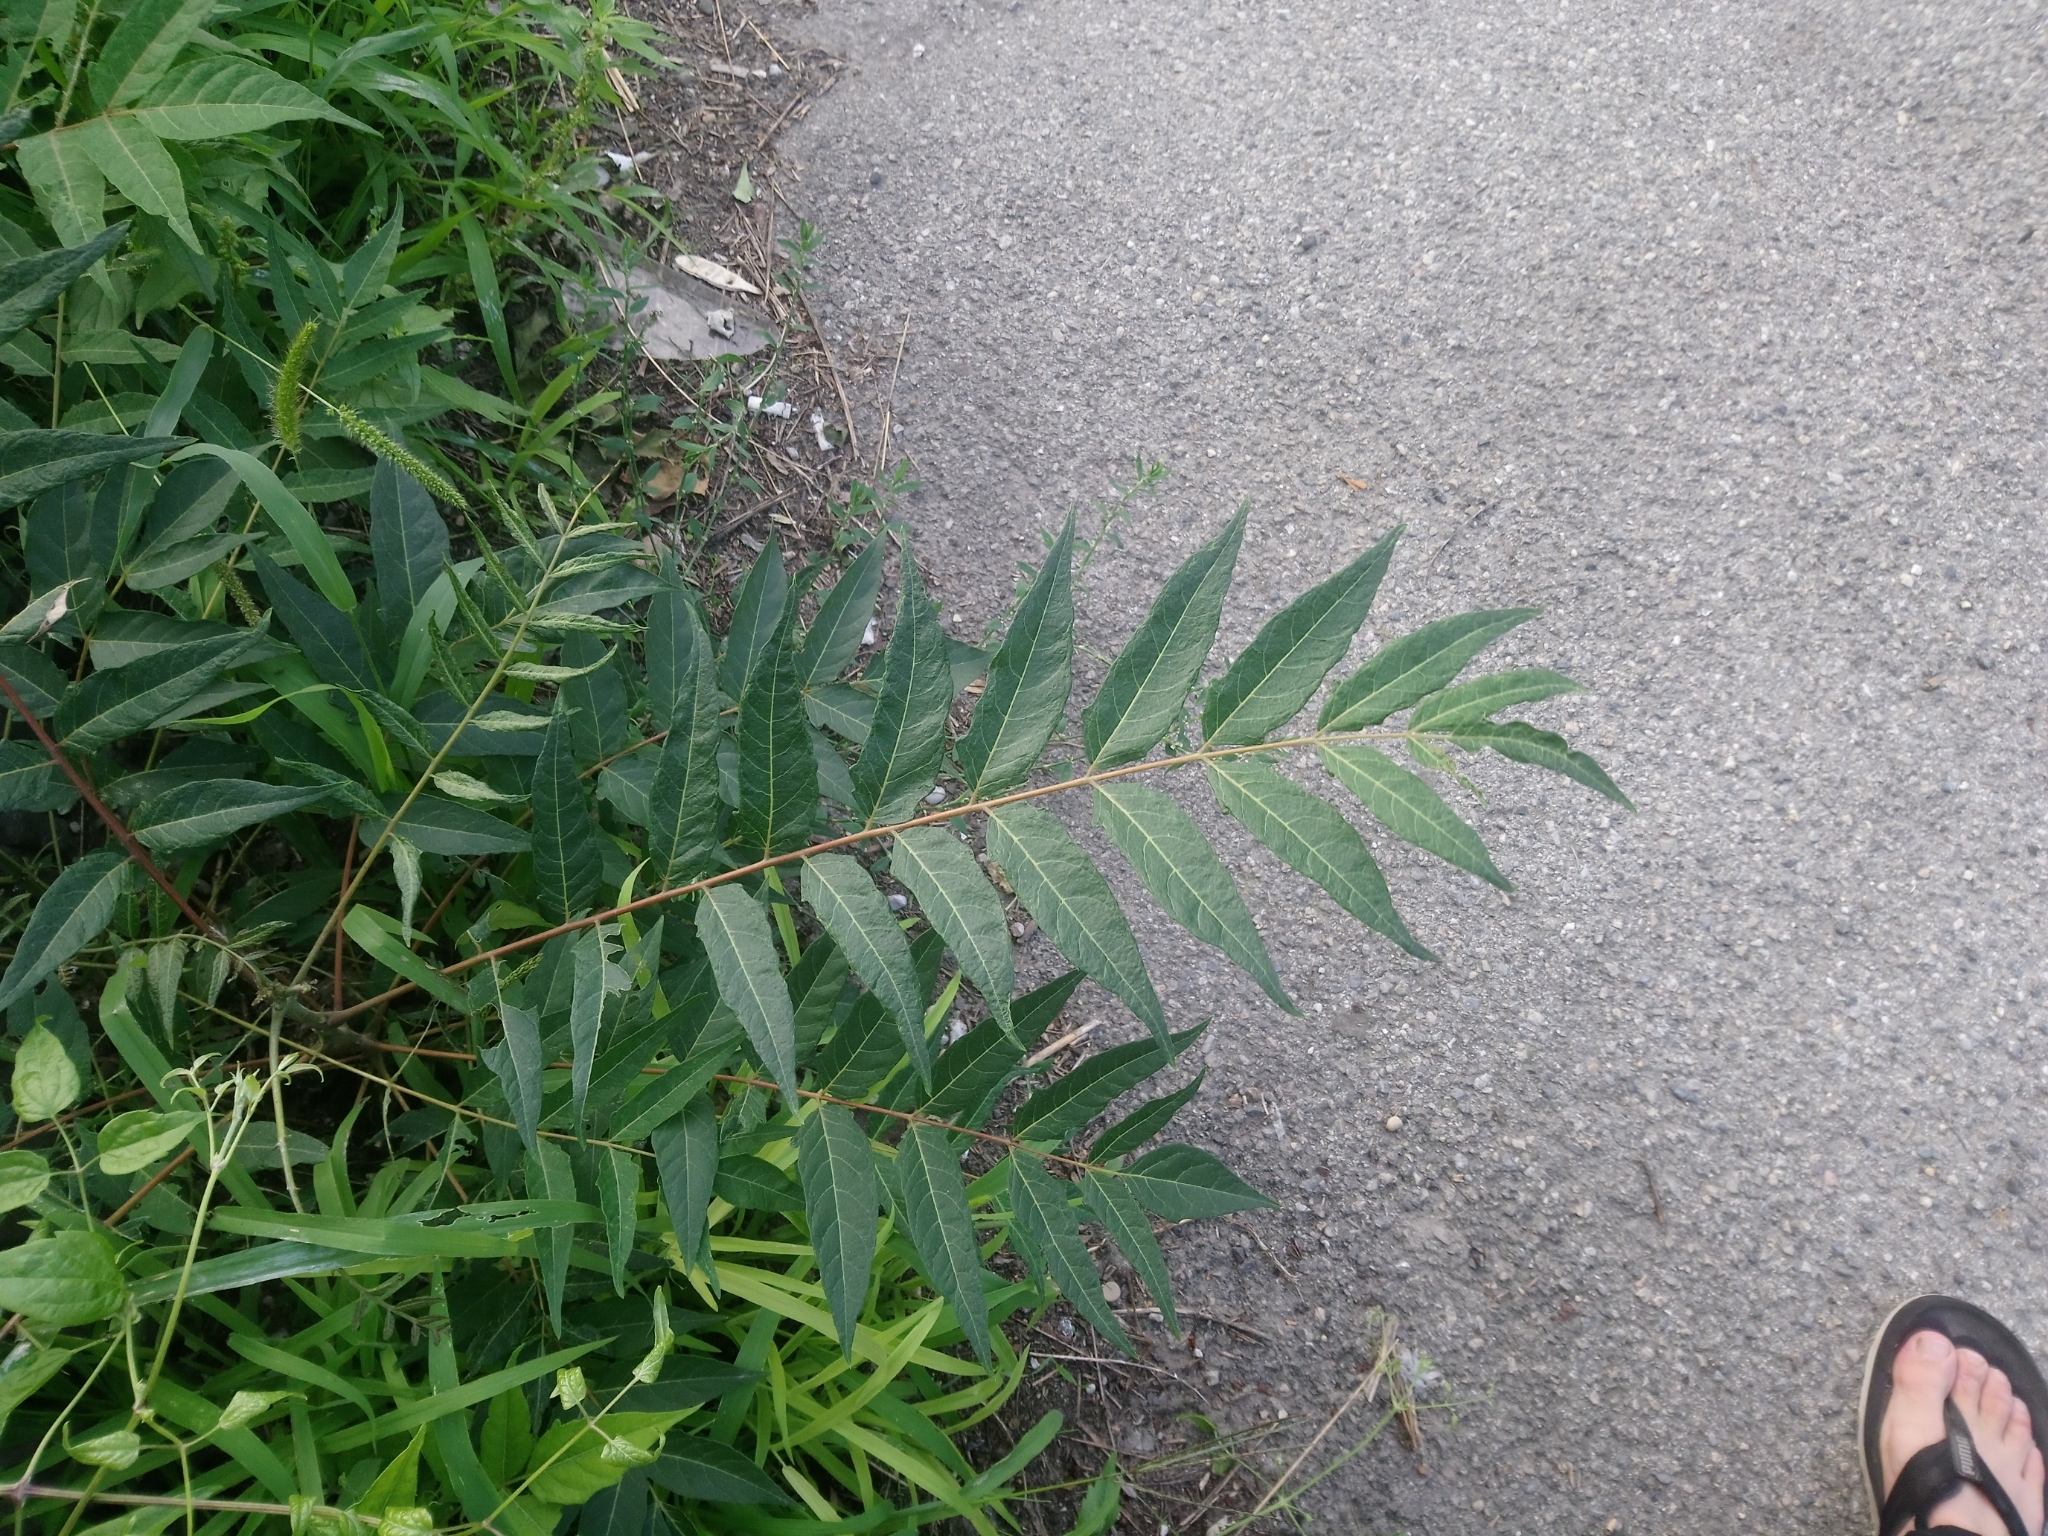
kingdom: Plantae
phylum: Tracheophyta
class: Magnoliopsida
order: Sapindales
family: Simaroubaceae
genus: Ailanthus
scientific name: Ailanthus altissima
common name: Tree-of-heaven
